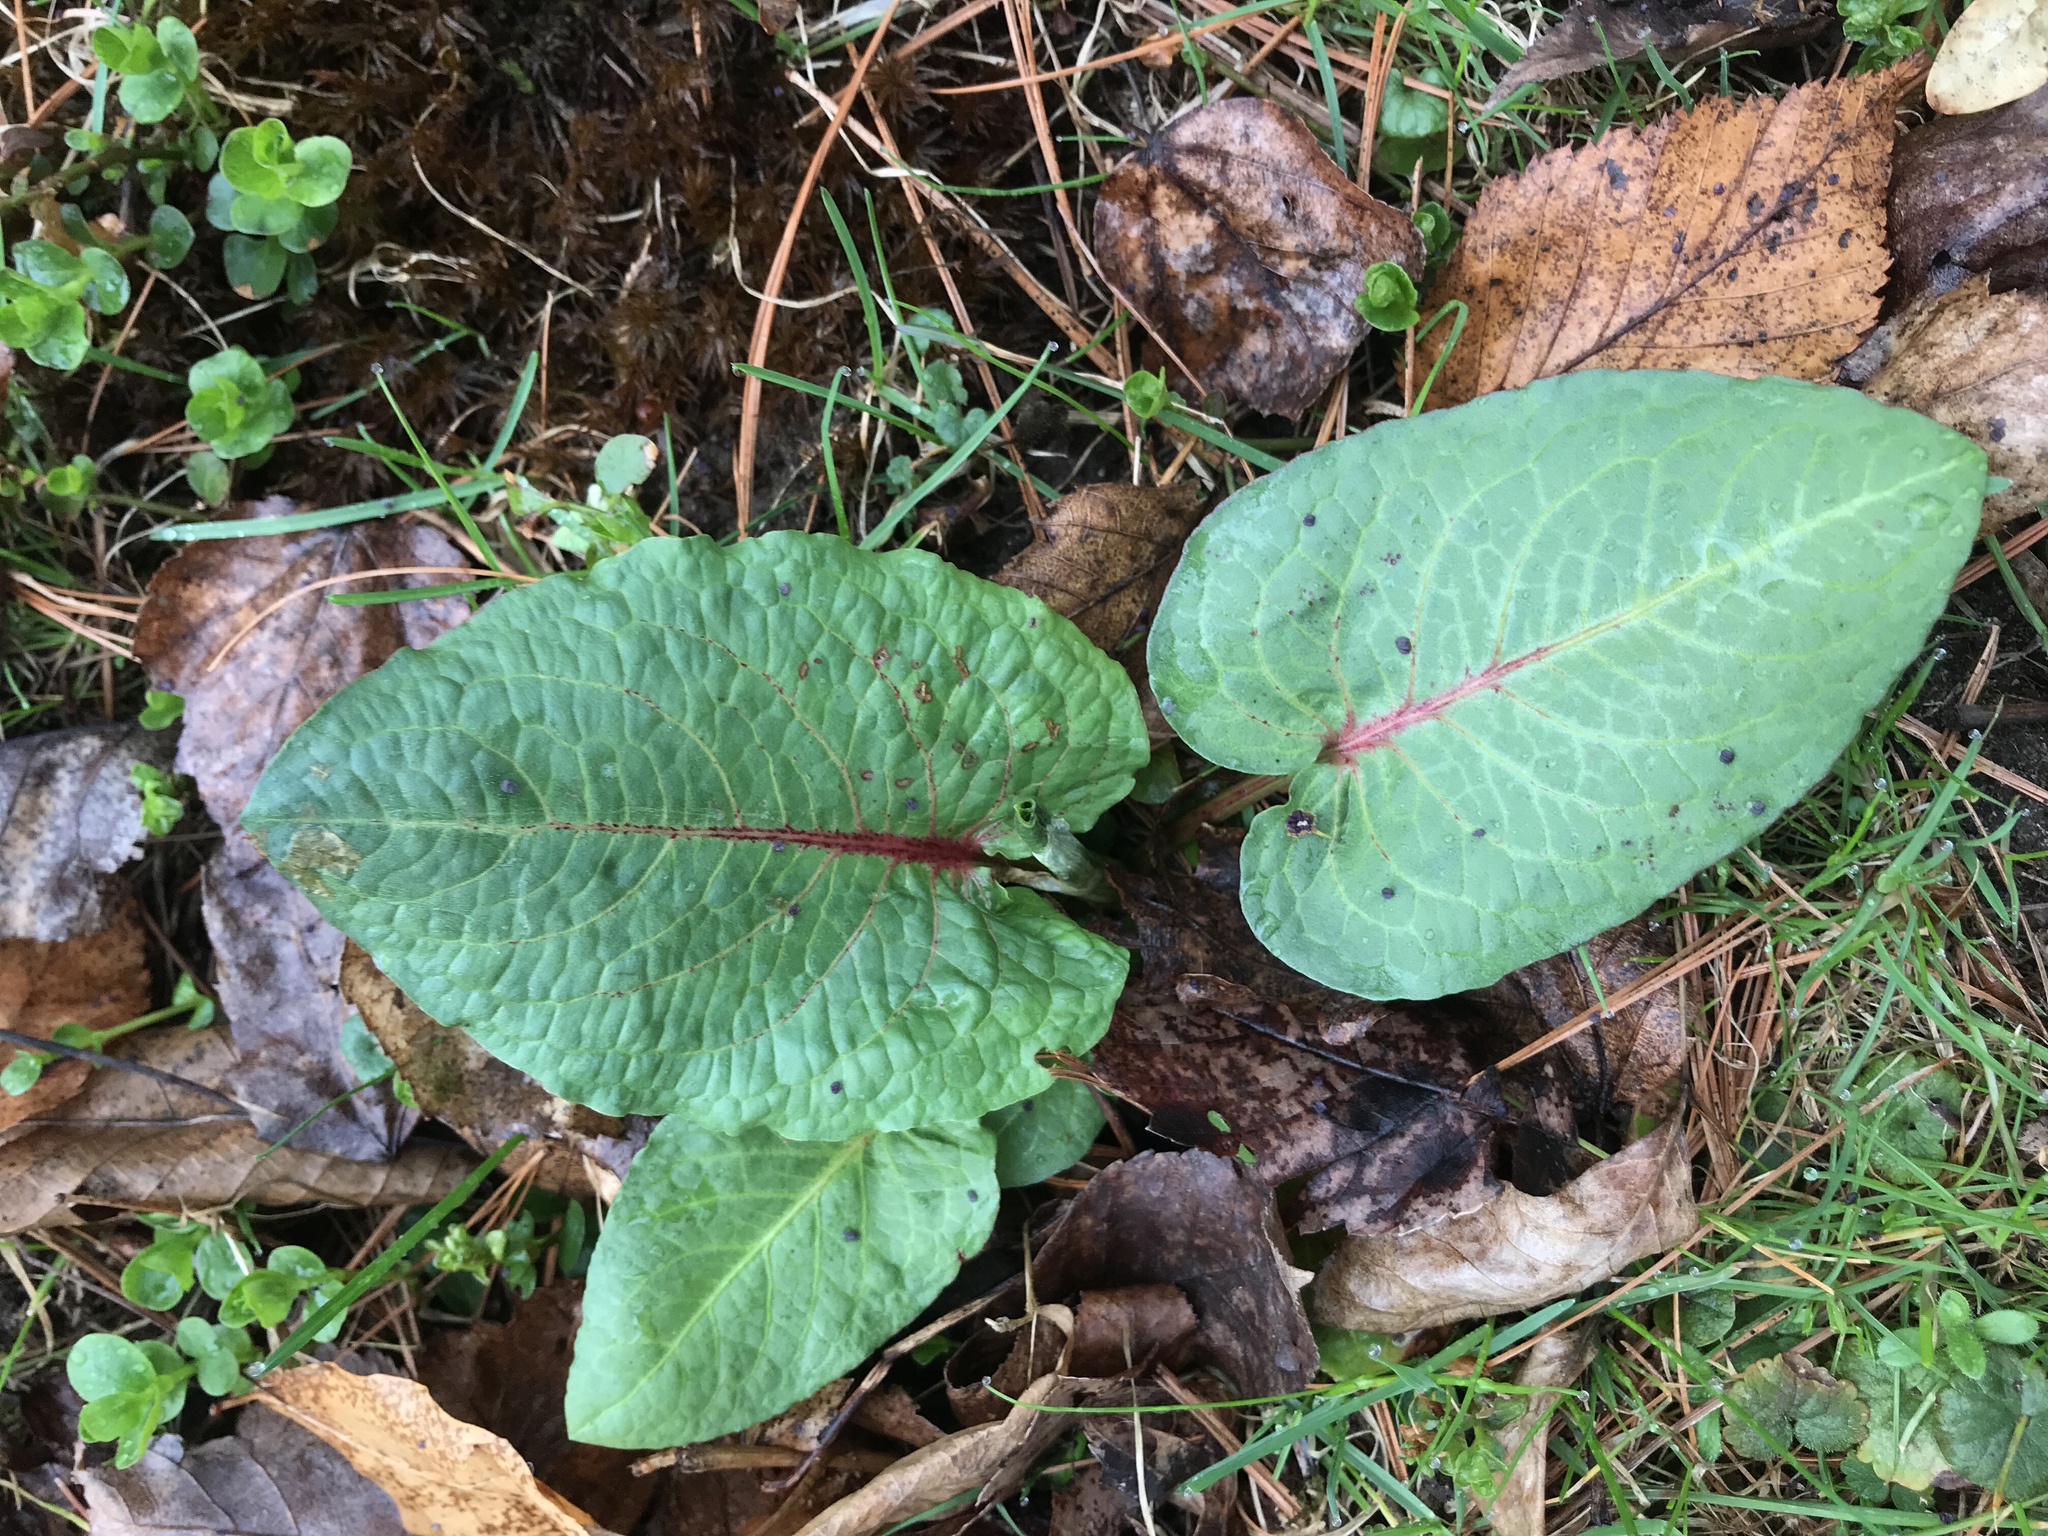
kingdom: Plantae
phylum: Tracheophyta
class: Magnoliopsida
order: Caryophyllales
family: Polygonaceae
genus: Rumex
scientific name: Rumex obtusifolius
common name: Bitter dock
